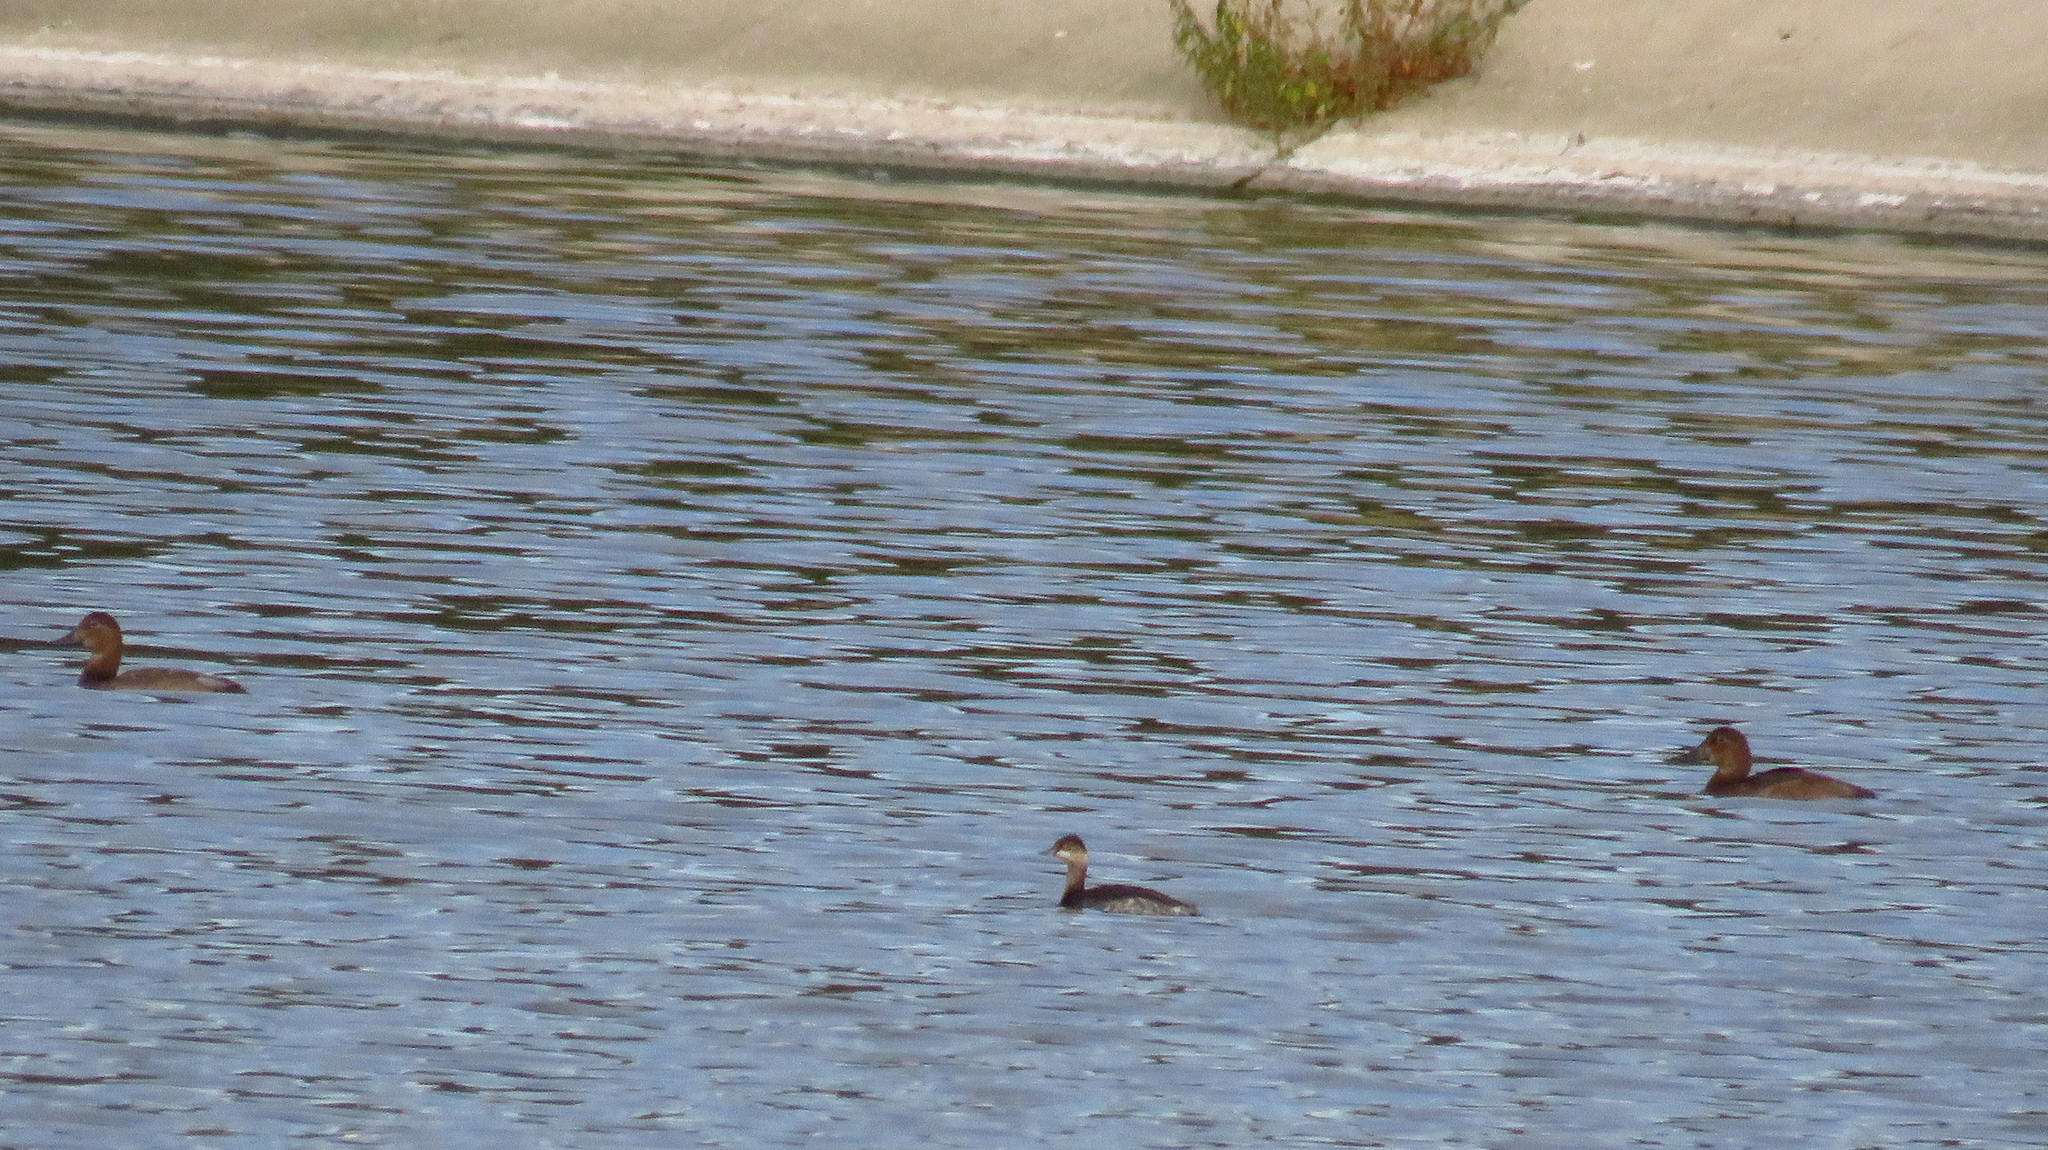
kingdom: Animalia
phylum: Chordata
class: Aves
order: Podicipediformes
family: Podicipedidae
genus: Podiceps
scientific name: Podiceps nigricollis
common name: Black-necked grebe
